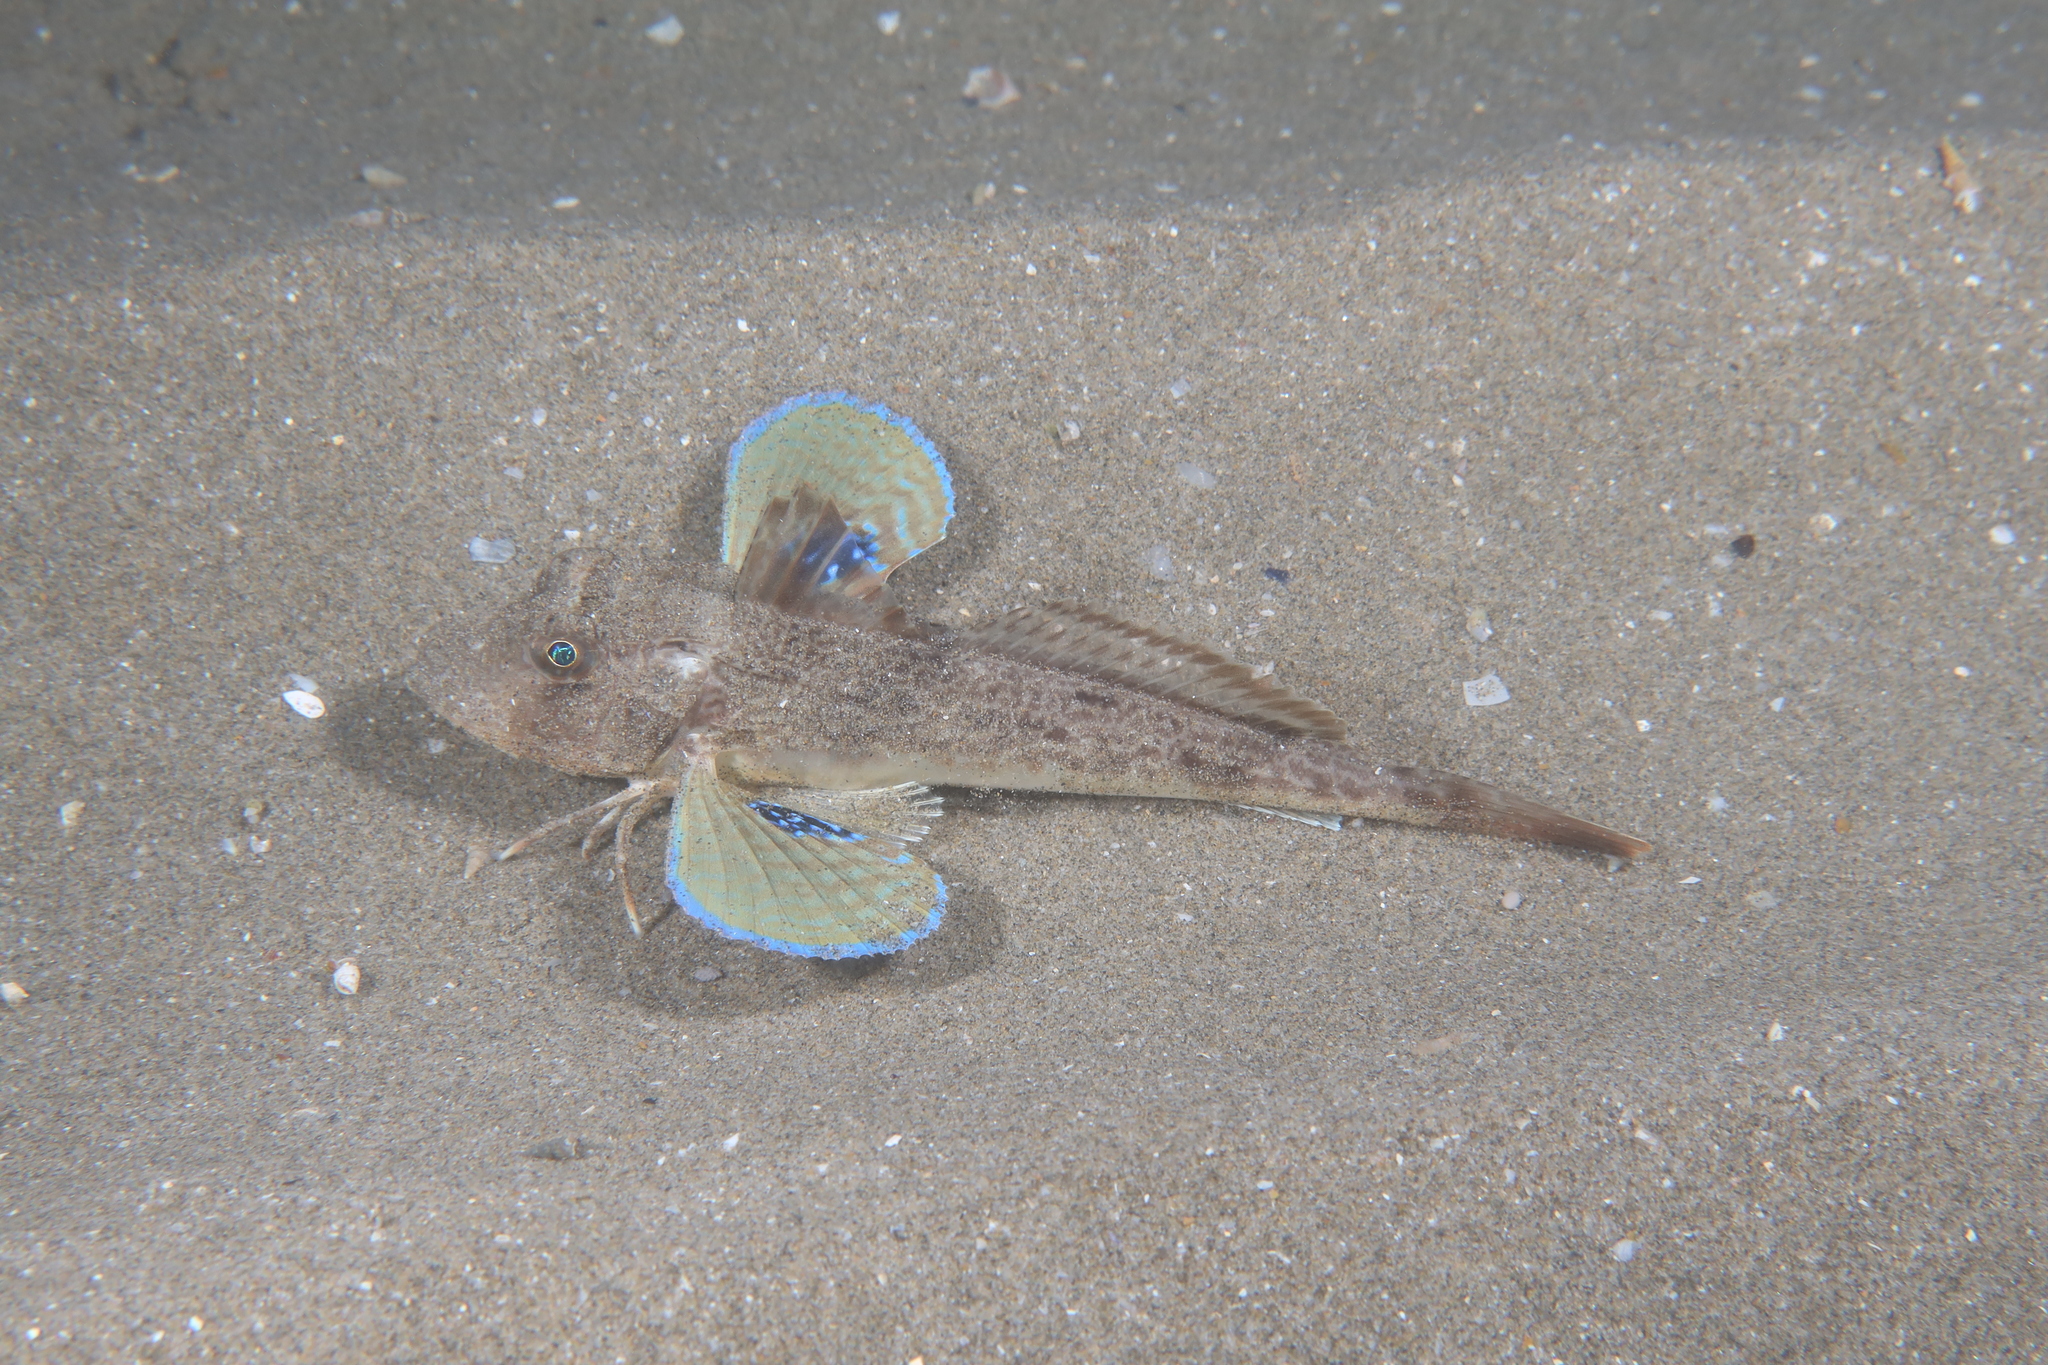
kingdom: Animalia
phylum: Chordata
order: Scorpaeniformes
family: Triglidae
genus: Chelidonichthys
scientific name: Chelidonichthys lucerna
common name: Tub gurnard
